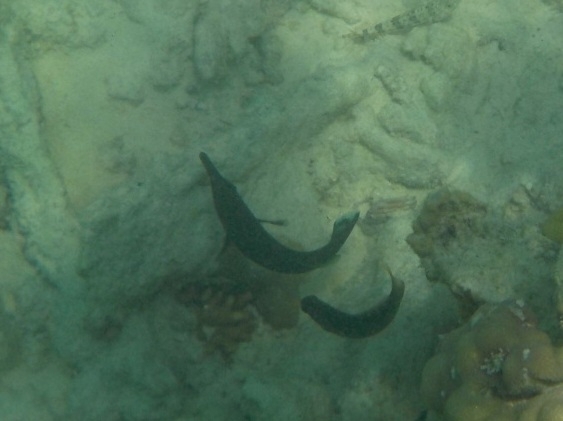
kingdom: Animalia
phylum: Chordata
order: Perciformes
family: Labridae
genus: Gomphosus
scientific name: Gomphosus caeruleus
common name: Bird wrasse
